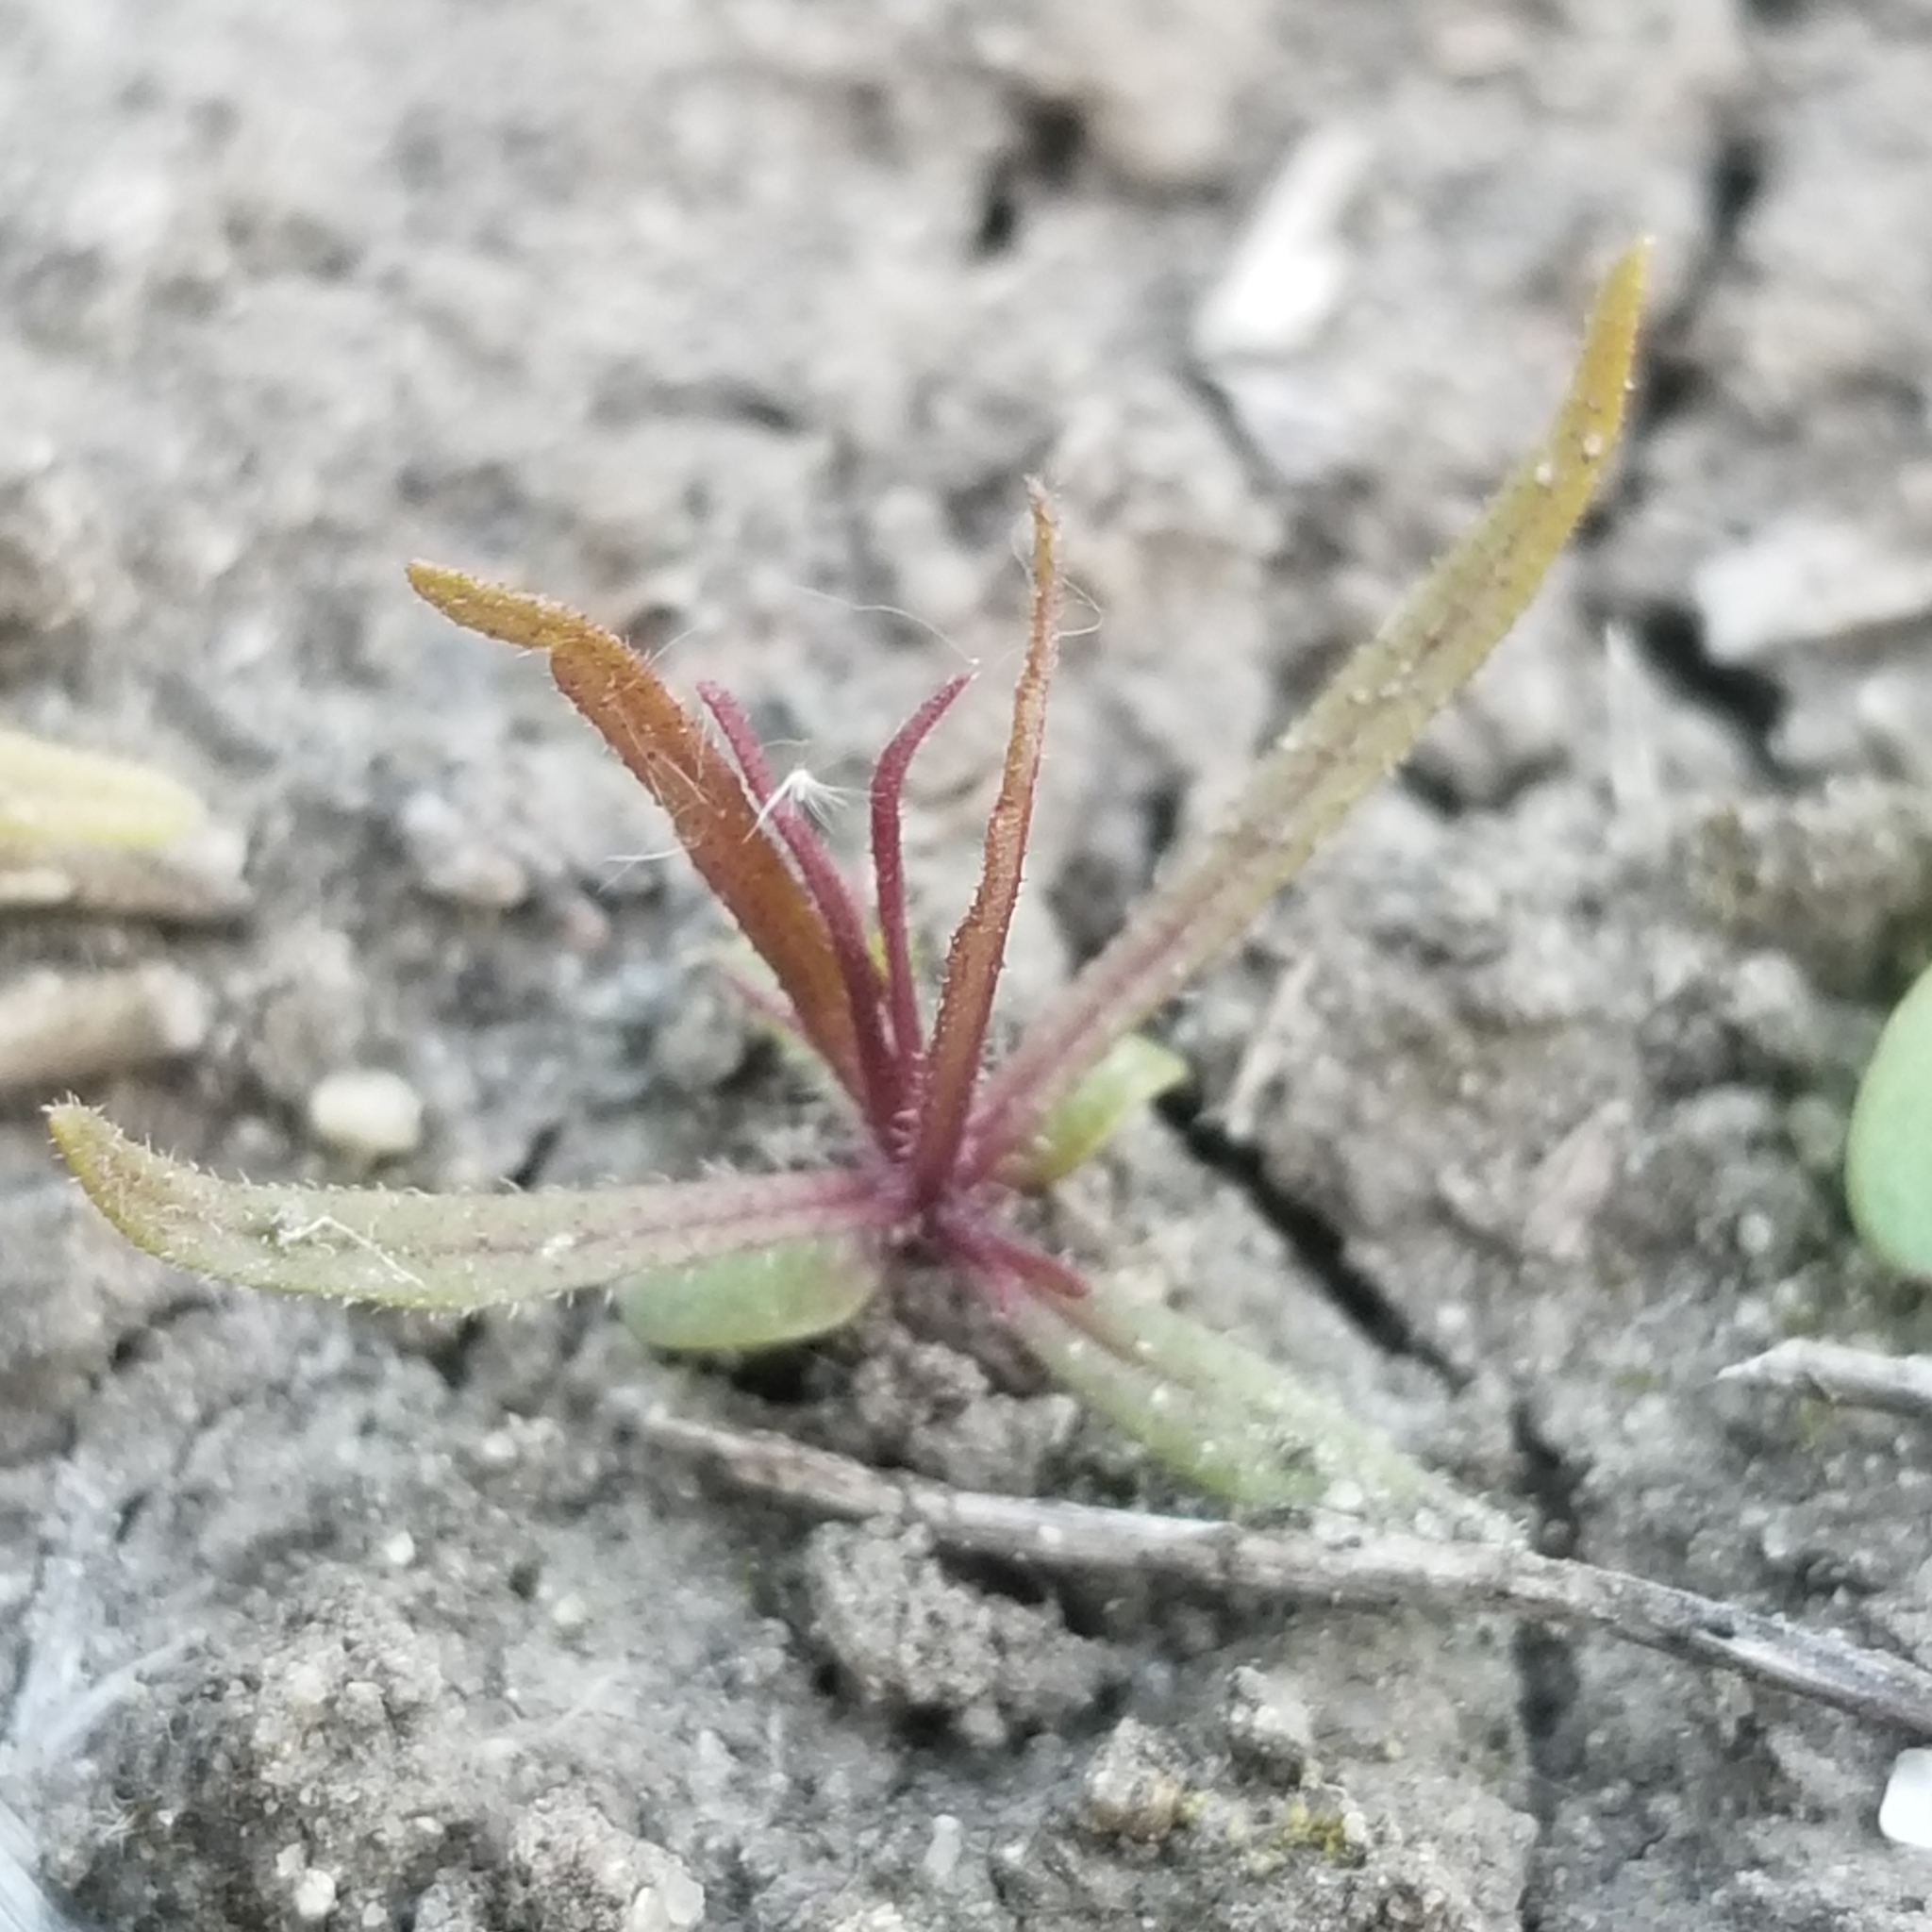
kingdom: Plantae
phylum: Tracheophyta
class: Magnoliopsida
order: Lamiales
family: Orobanchaceae
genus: Dicranostegia
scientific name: Dicranostegia orcuttiana
